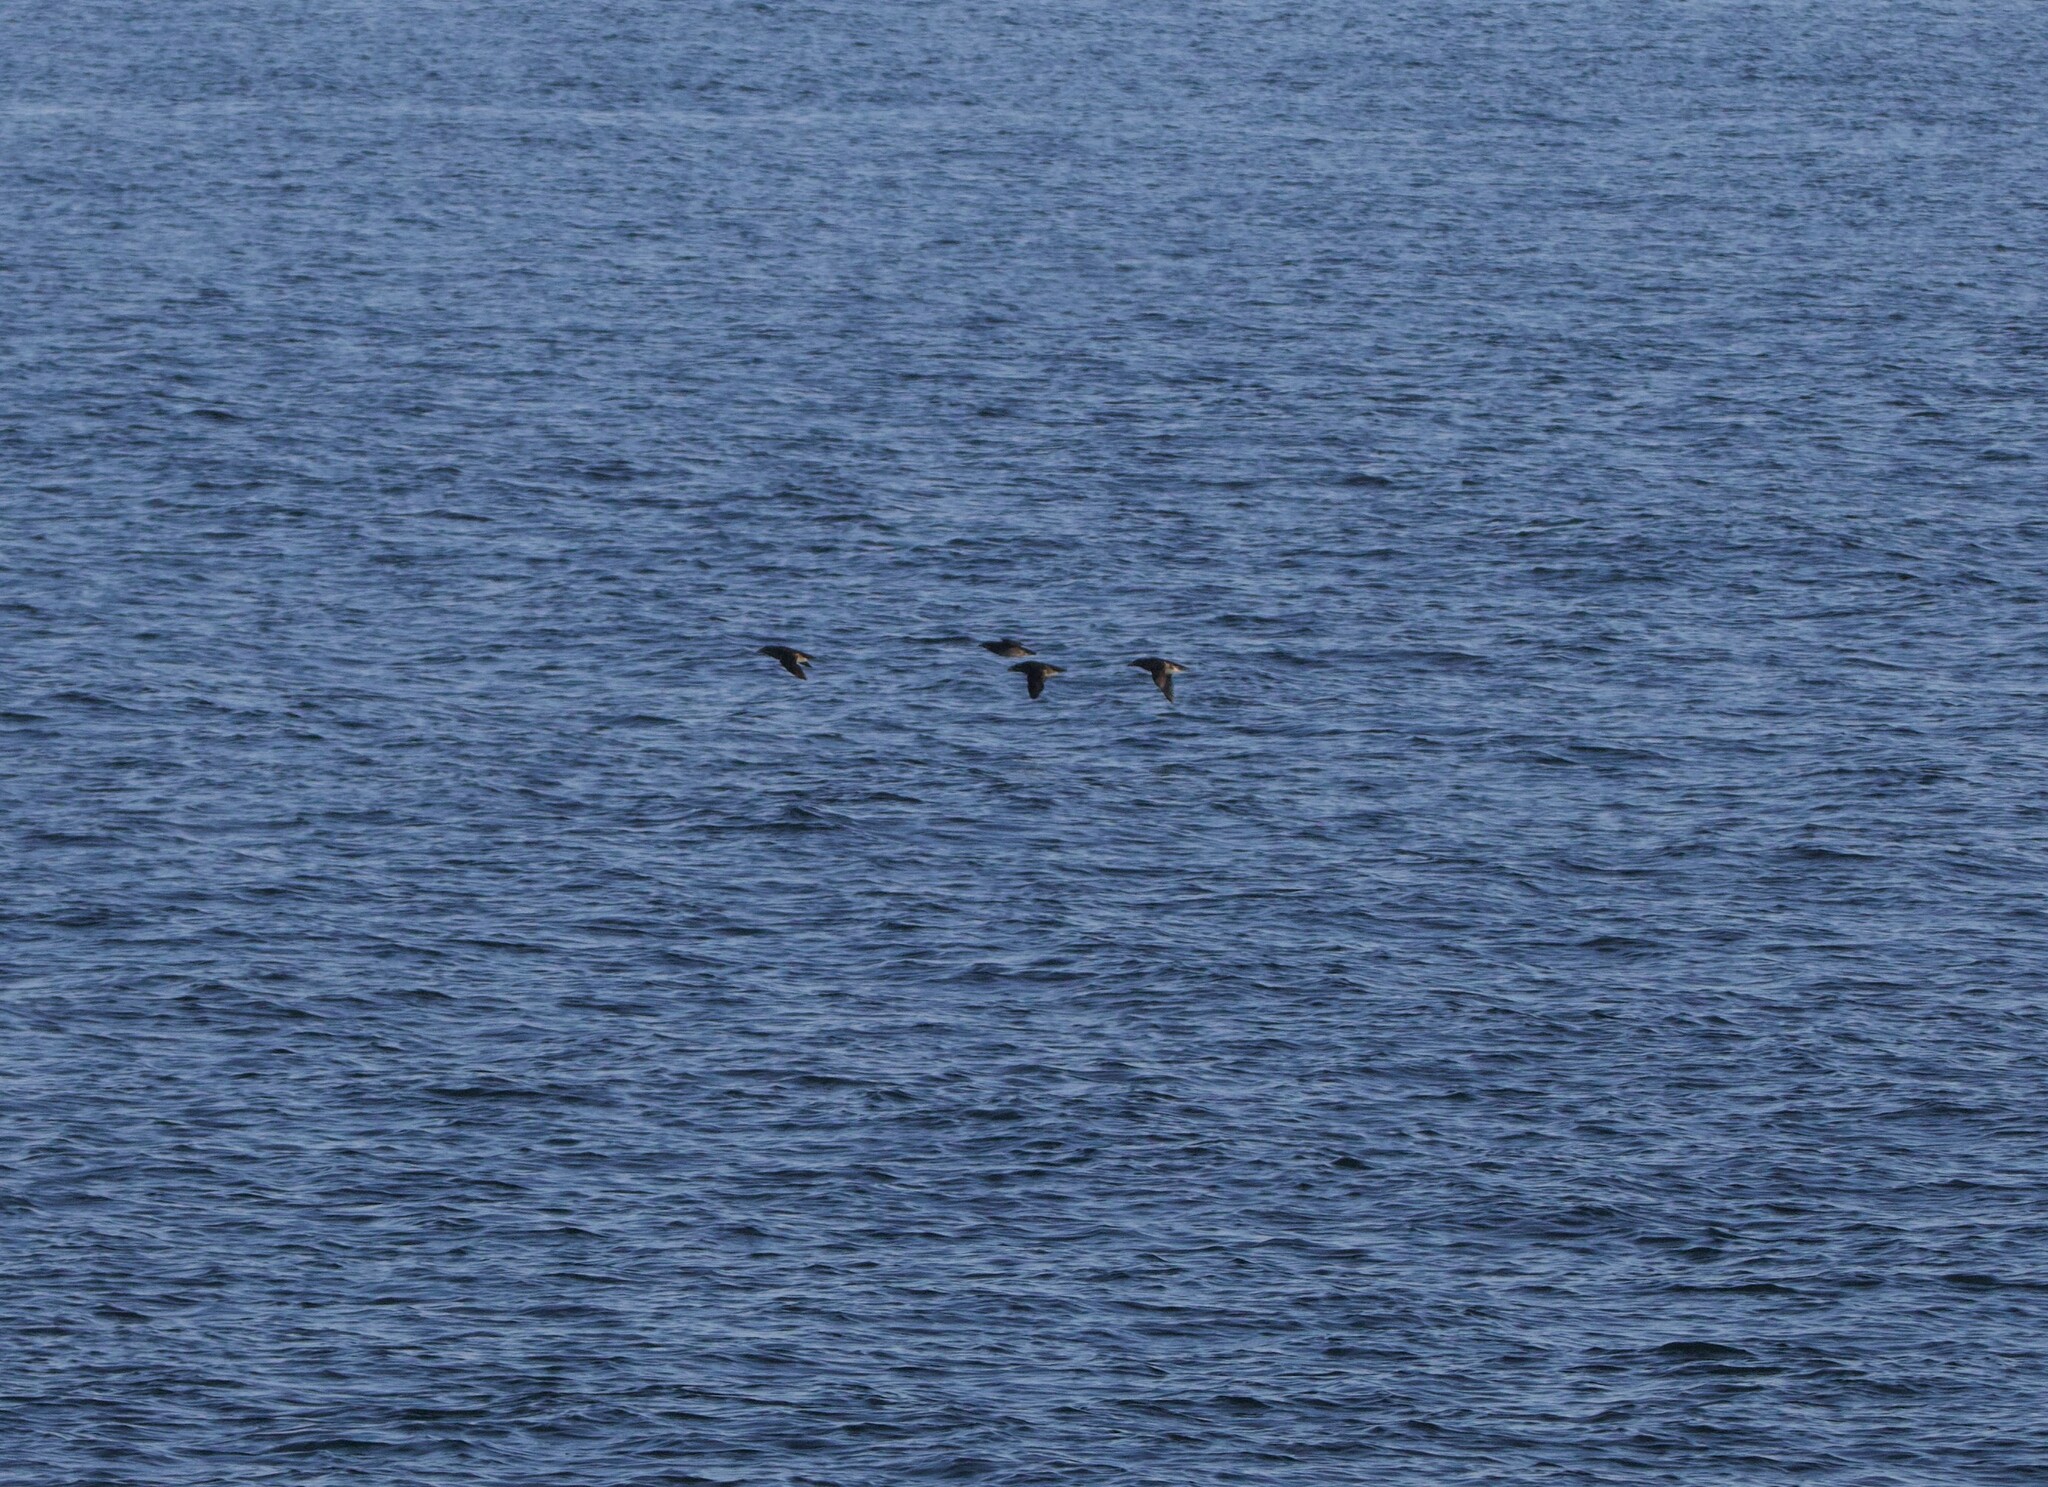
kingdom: Animalia
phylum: Chordata
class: Aves
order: Charadriiformes
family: Alcidae
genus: Cerorhinca
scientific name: Cerorhinca monocerata
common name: Rhinoceros auklet
